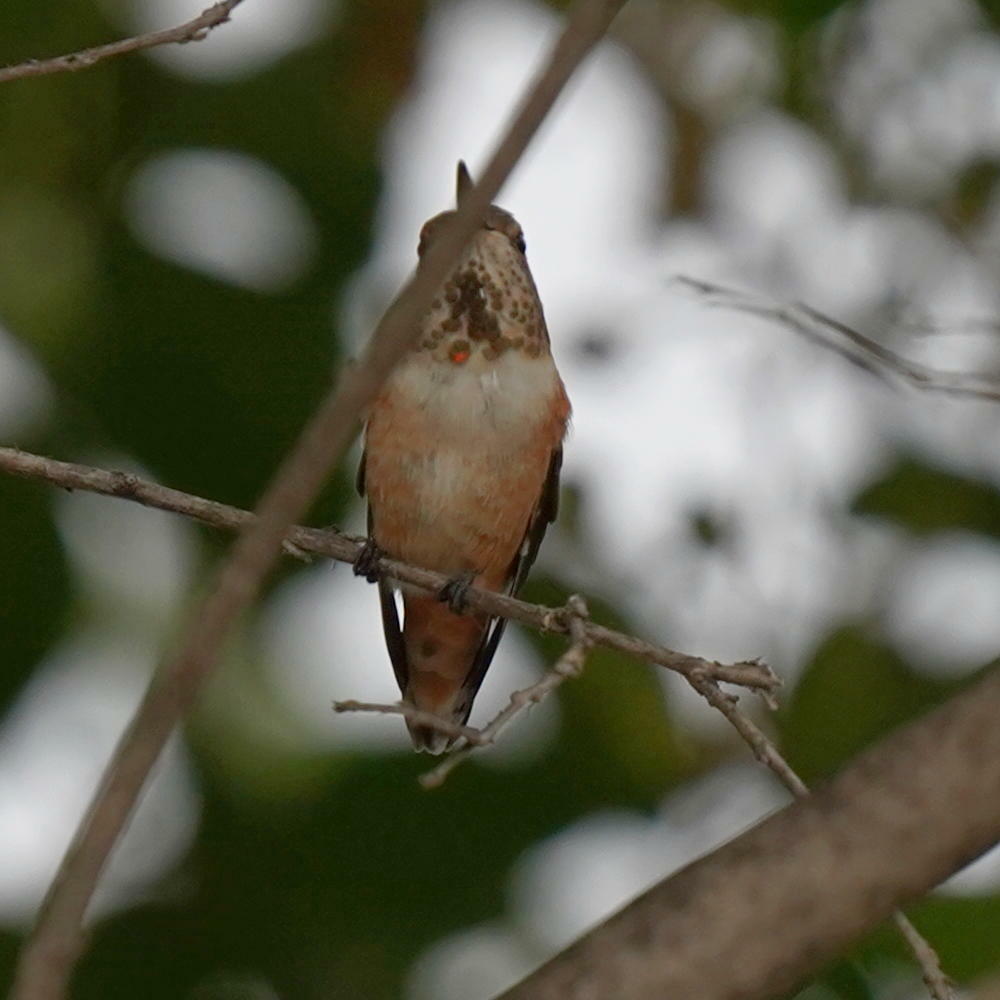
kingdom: Animalia
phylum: Chordata
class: Aves
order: Apodiformes
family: Trochilidae
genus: Selasphorus
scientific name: Selasphorus sasin
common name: Allen's hummingbird
